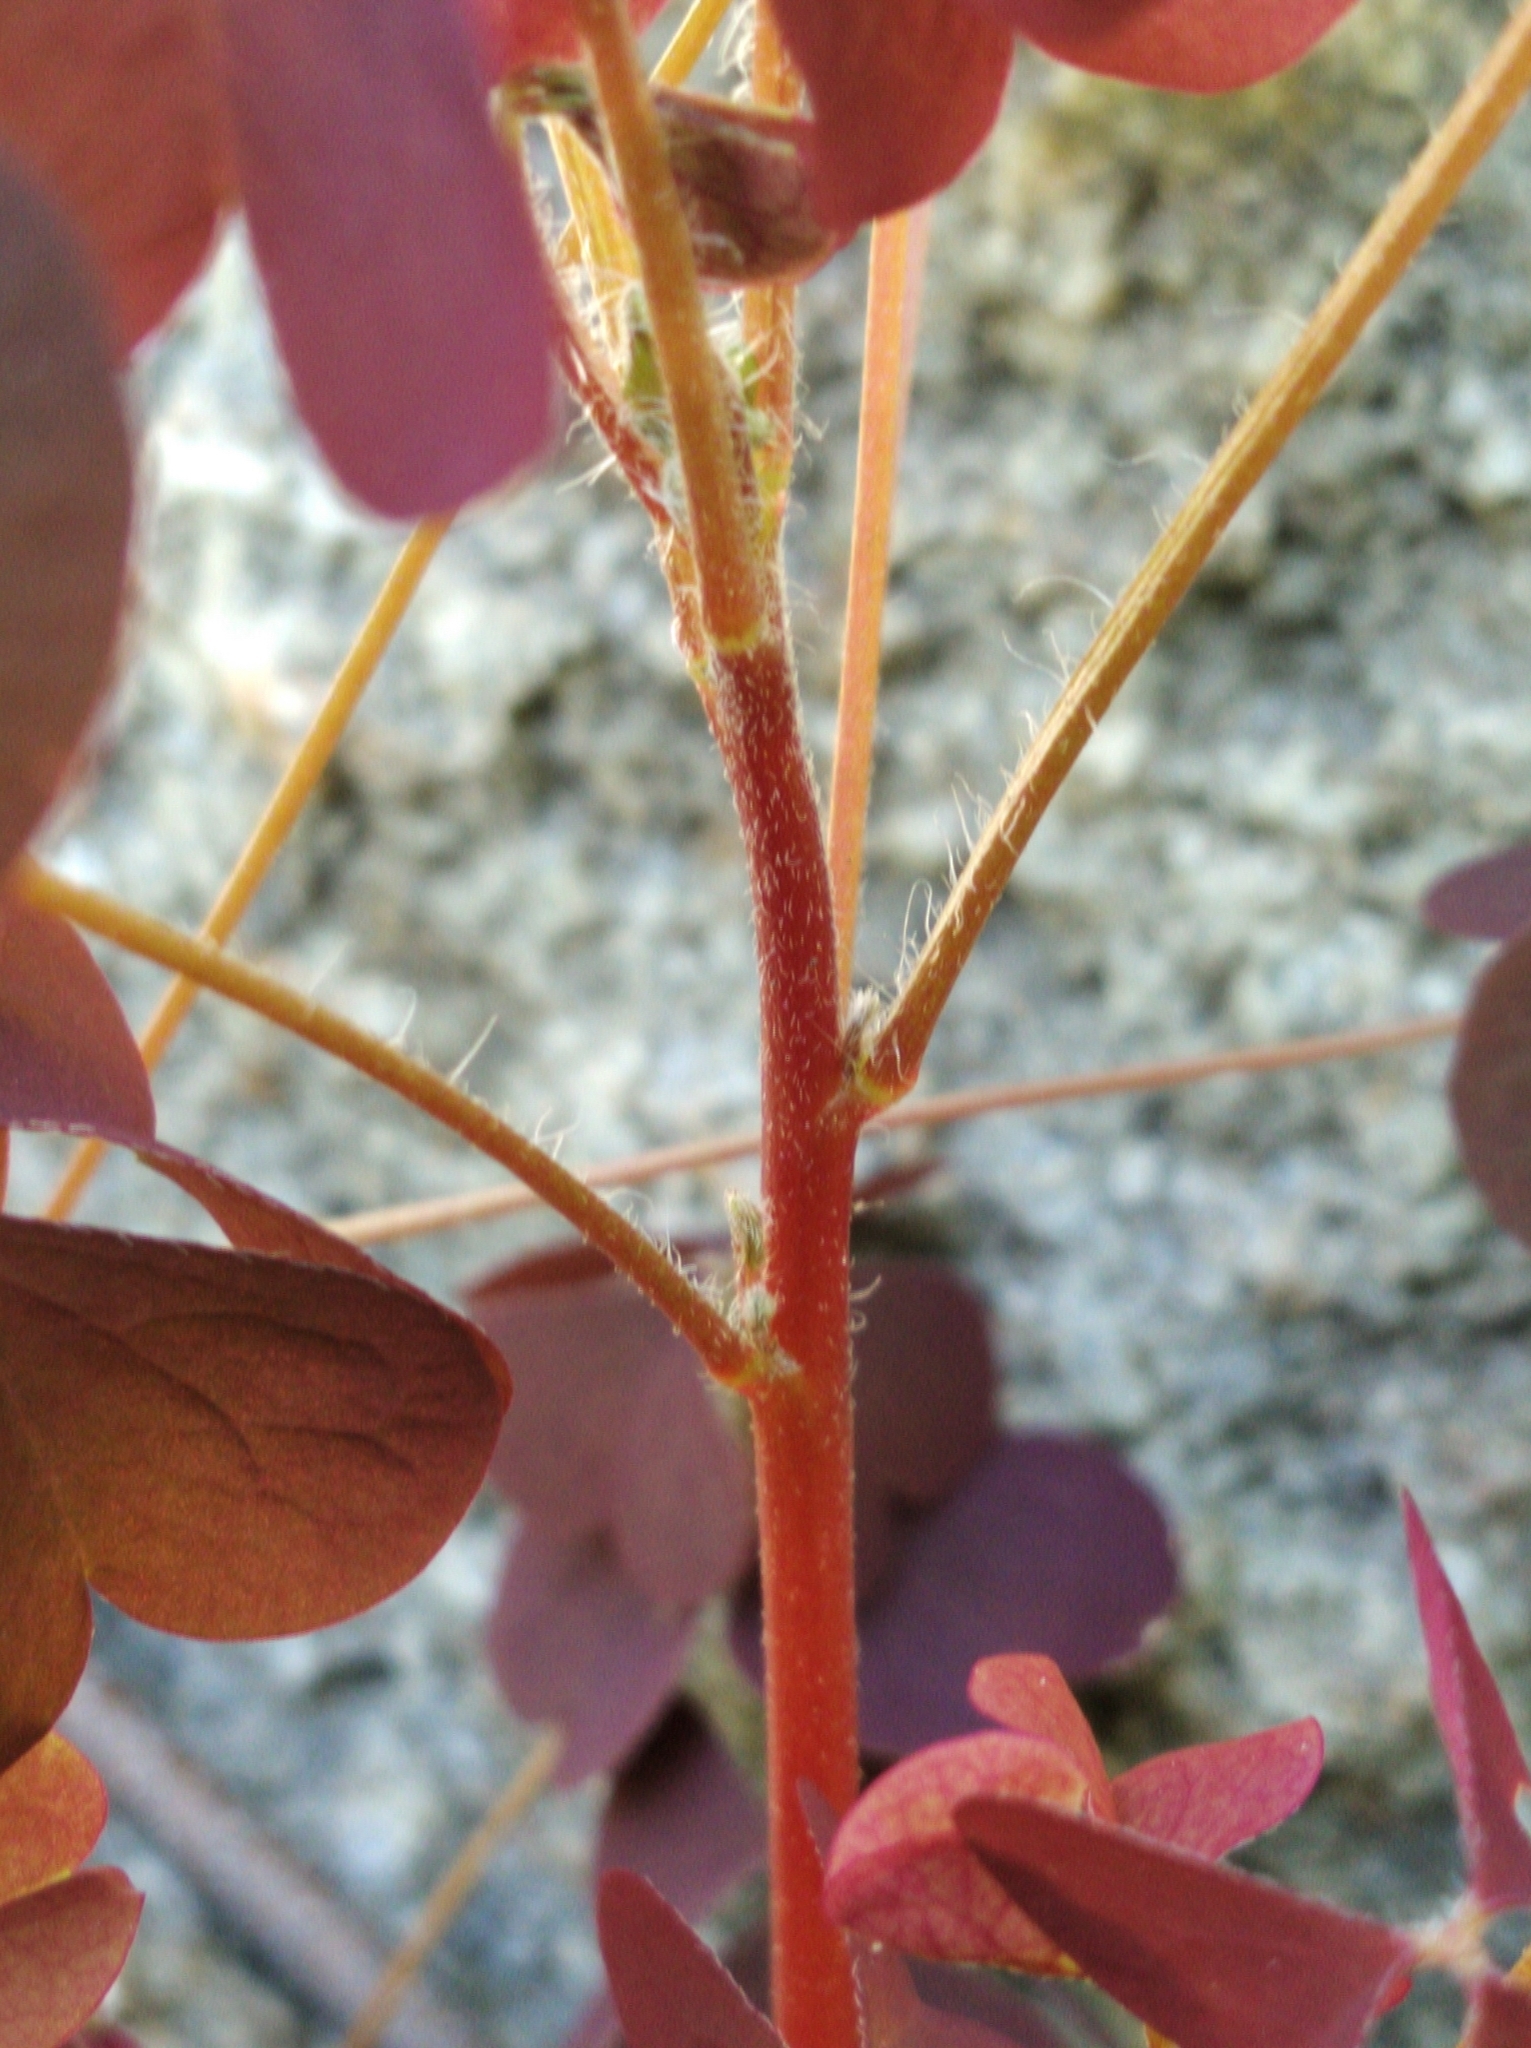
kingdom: Plantae
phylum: Tracheophyta
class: Magnoliopsida
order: Oxalidales
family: Oxalidaceae
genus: Oxalis
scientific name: Oxalis stricta
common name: Upright yellow-sorrel
